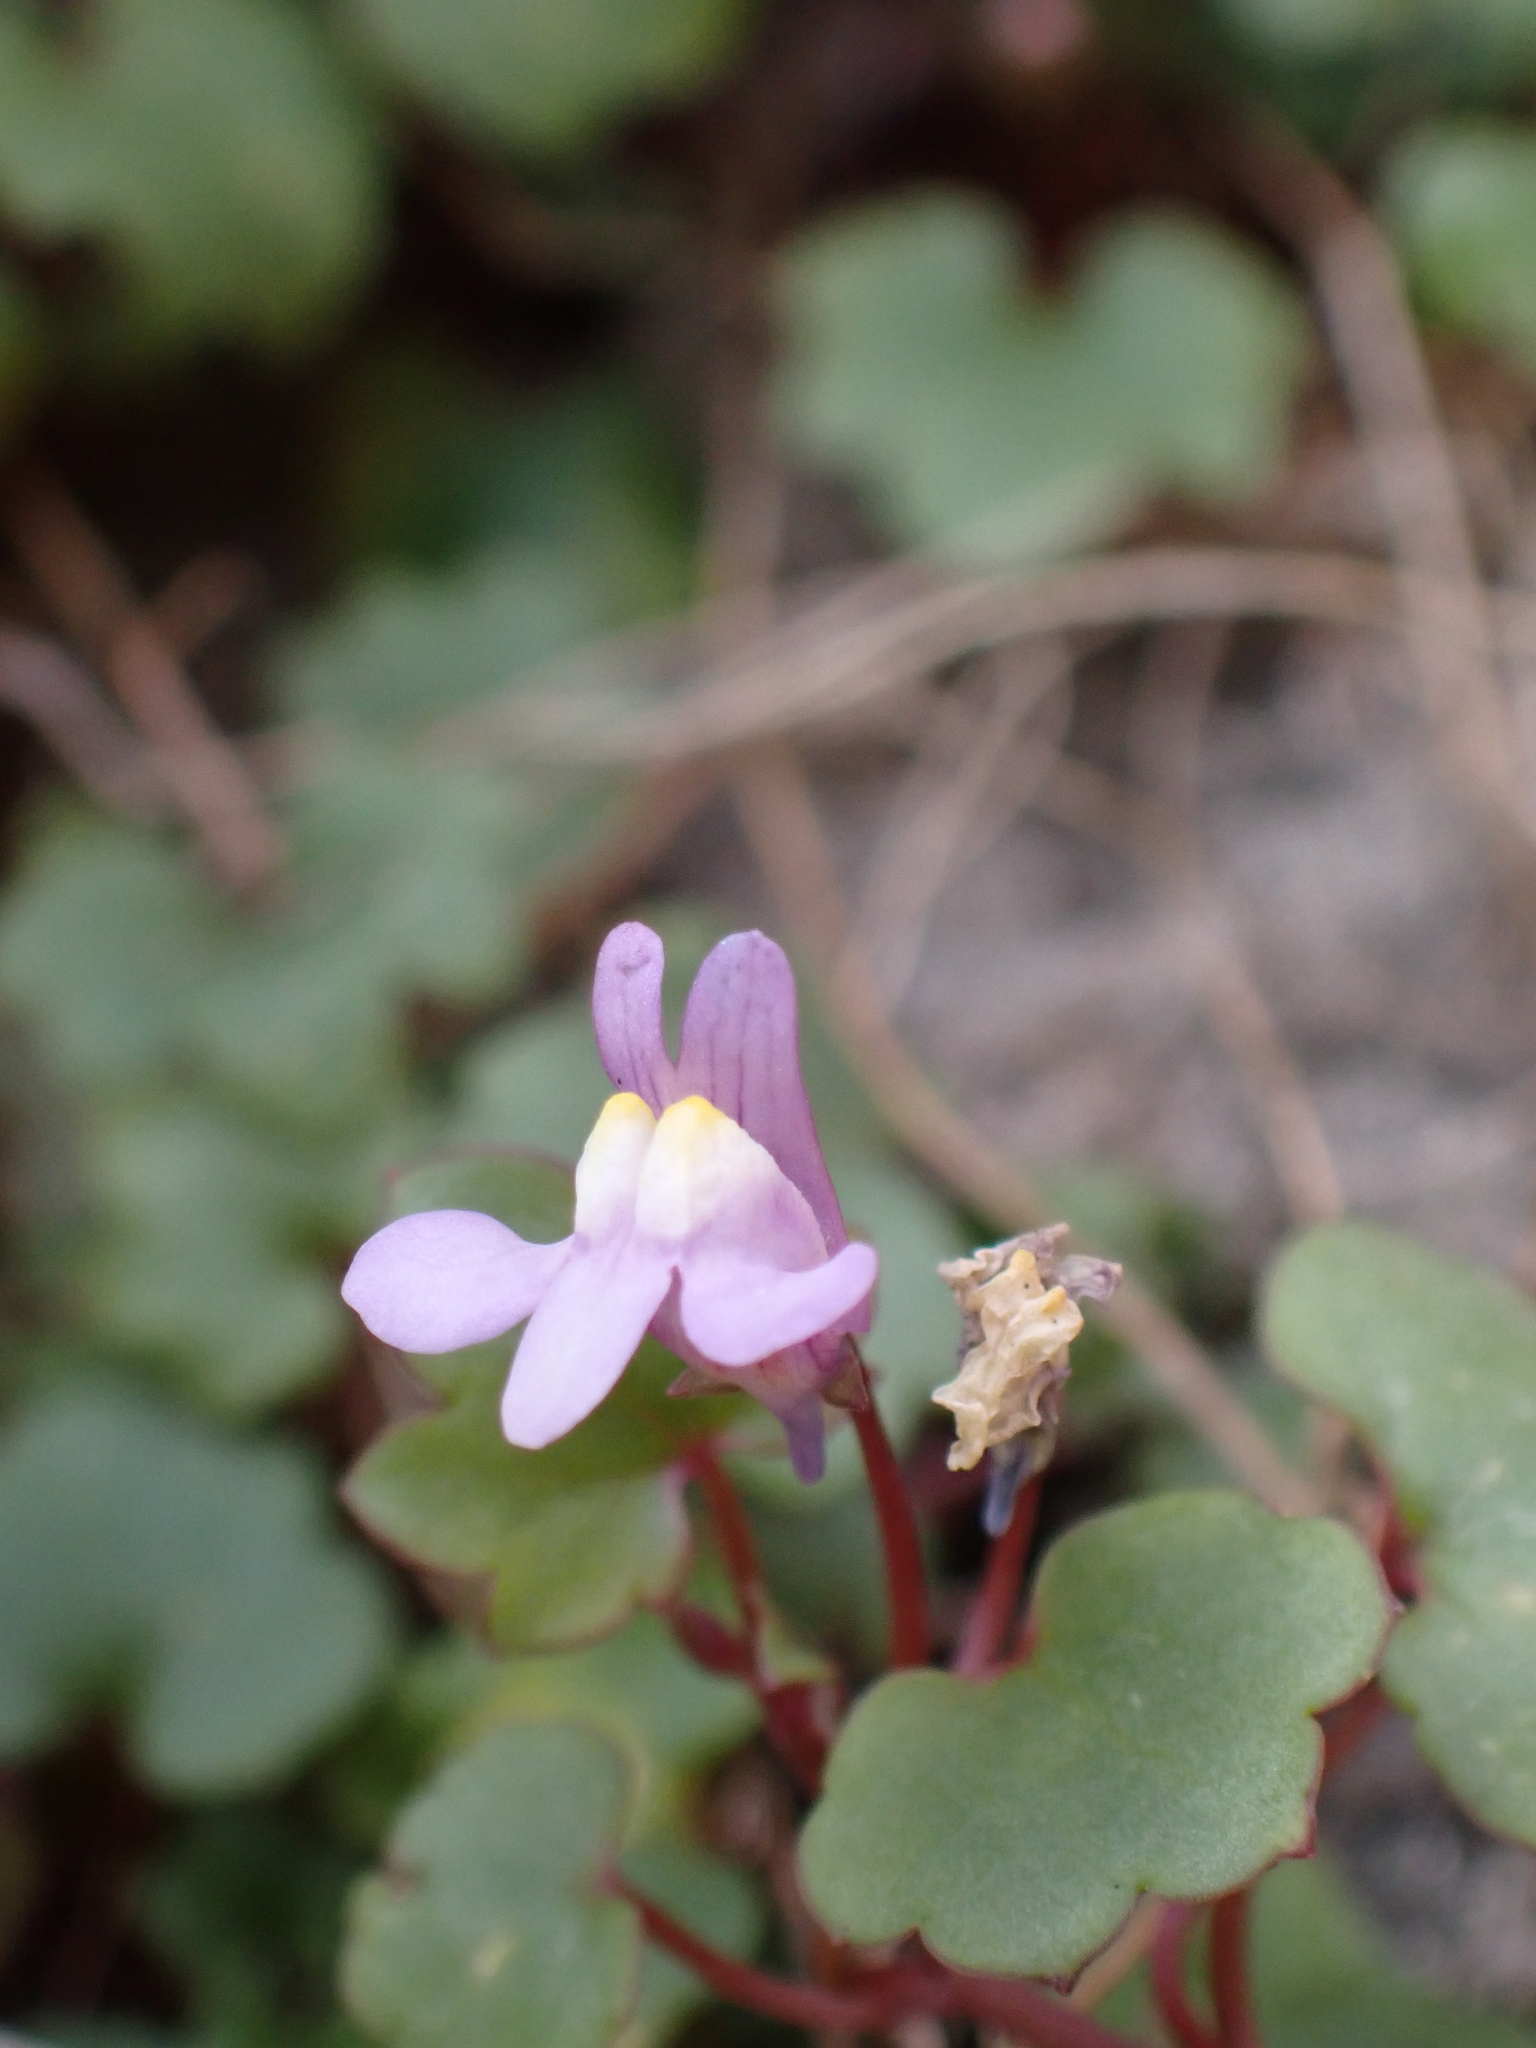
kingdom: Plantae
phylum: Tracheophyta
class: Magnoliopsida
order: Lamiales
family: Plantaginaceae
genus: Cymbalaria
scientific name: Cymbalaria muralis
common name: Ivy-leaved toadflax
